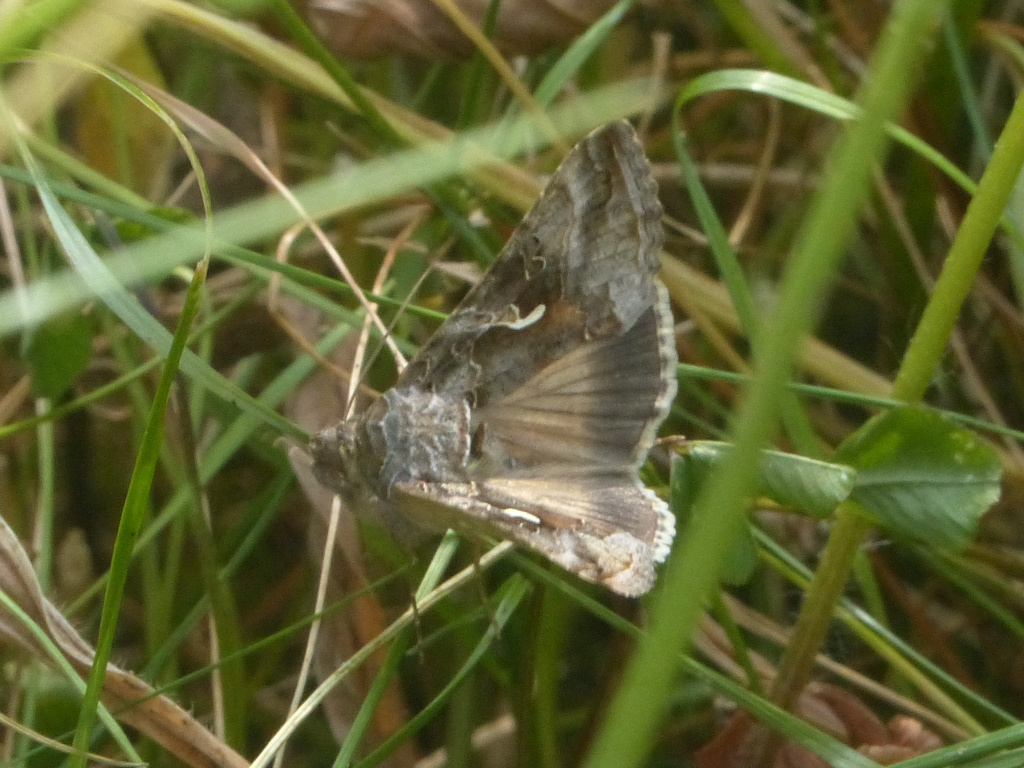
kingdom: Animalia
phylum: Arthropoda
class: Insecta
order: Lepidoptera
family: Noctuidae
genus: Autographa
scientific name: Autographa gamma
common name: Silver y
